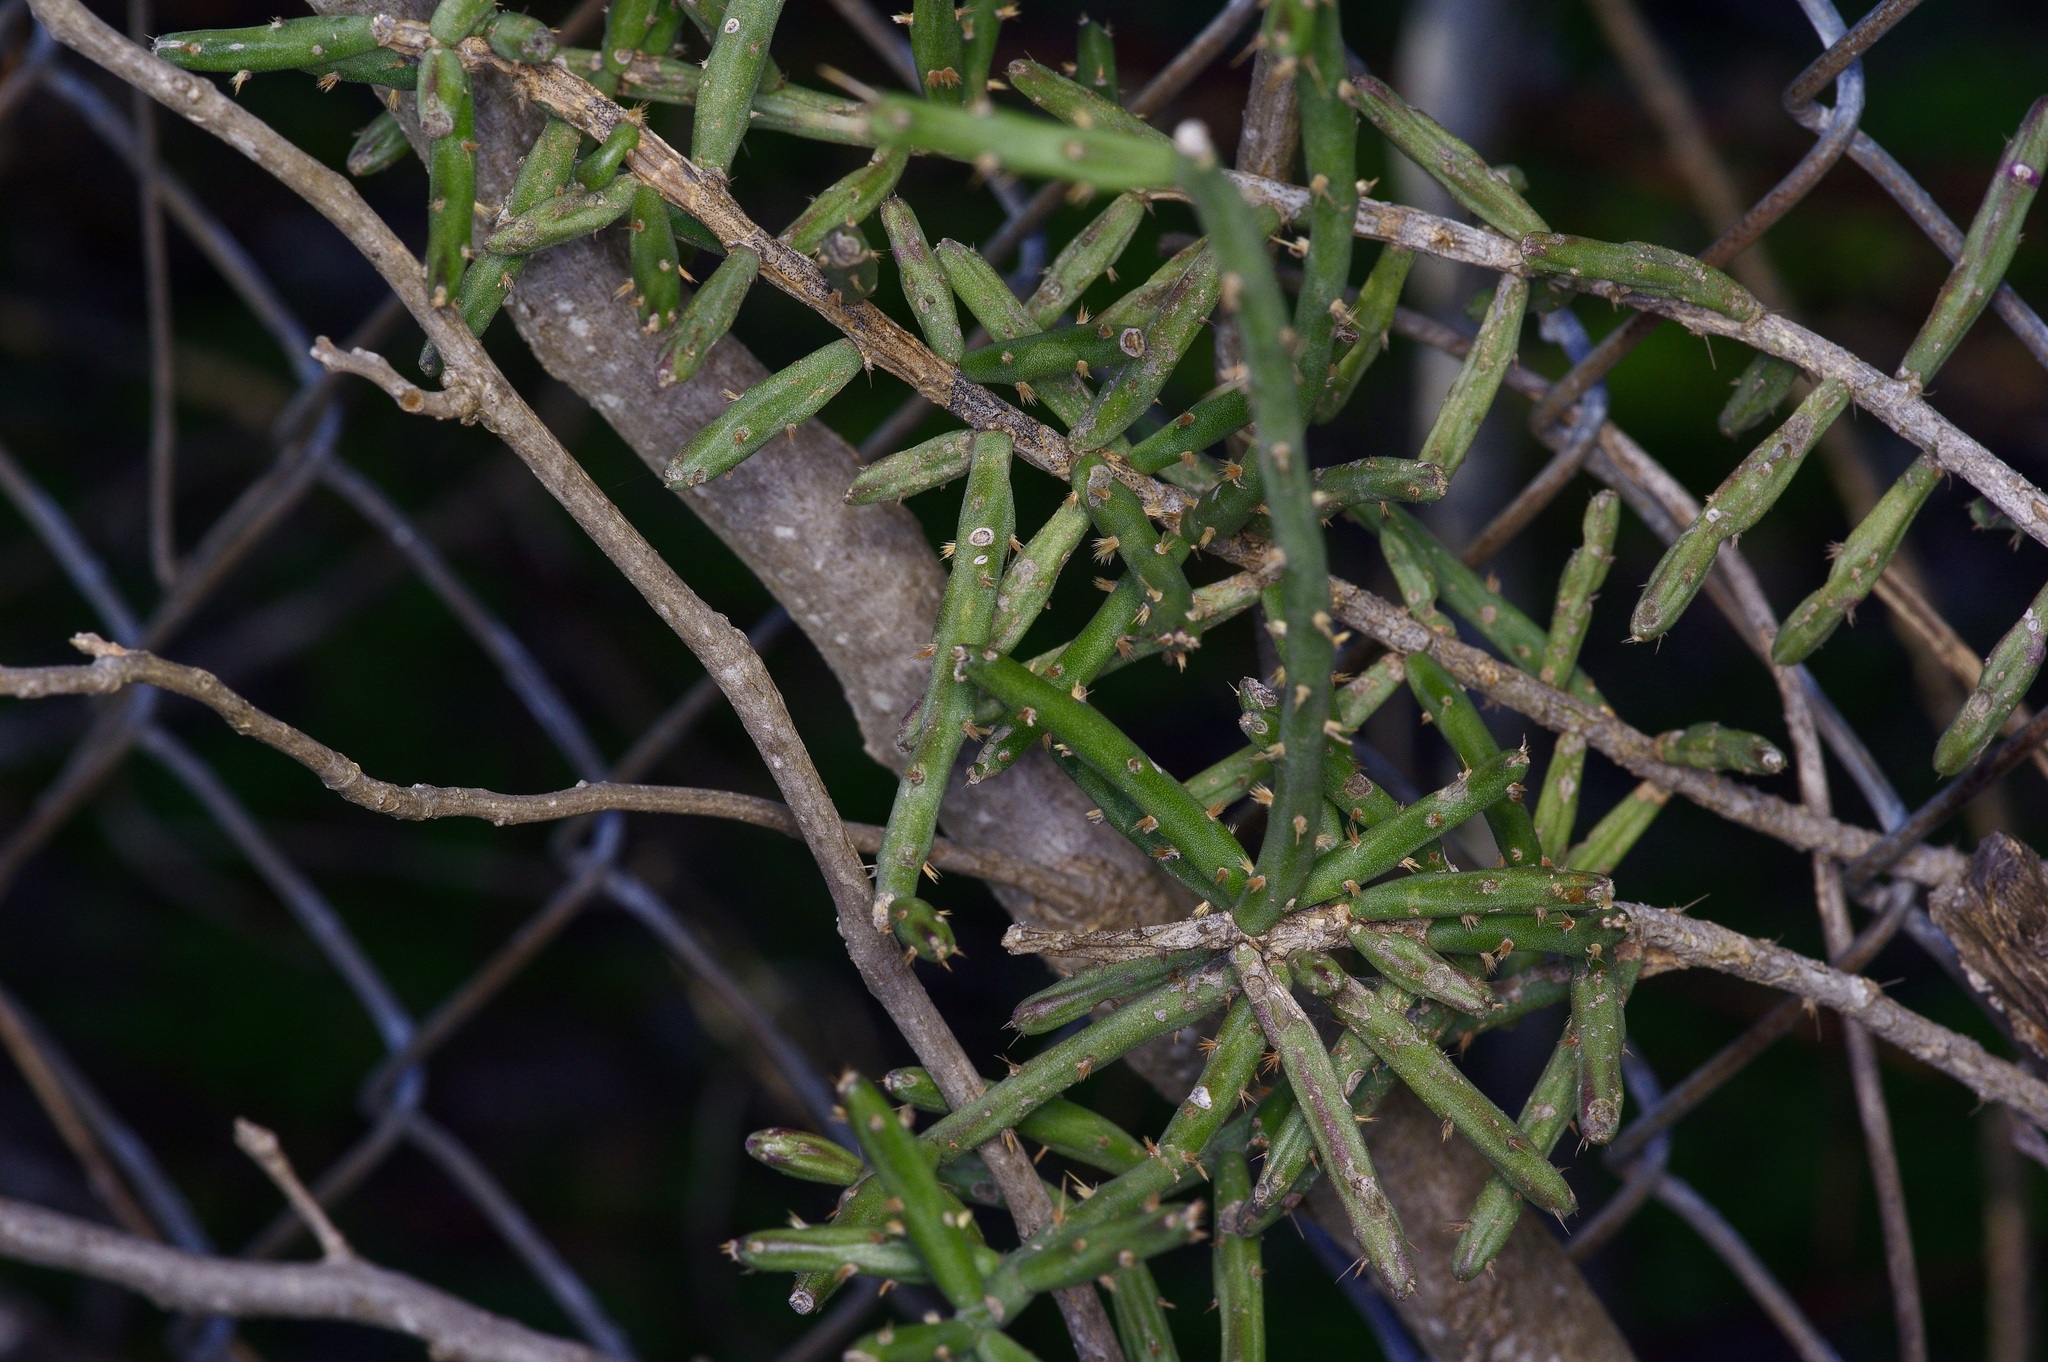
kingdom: Plantae
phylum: Tracheophyta
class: Magnoliopsida
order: Caryophyllales
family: Cactaceae
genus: Cylindropuntia
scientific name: Cylindropuntia leptocaulis
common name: Christmas cactus
